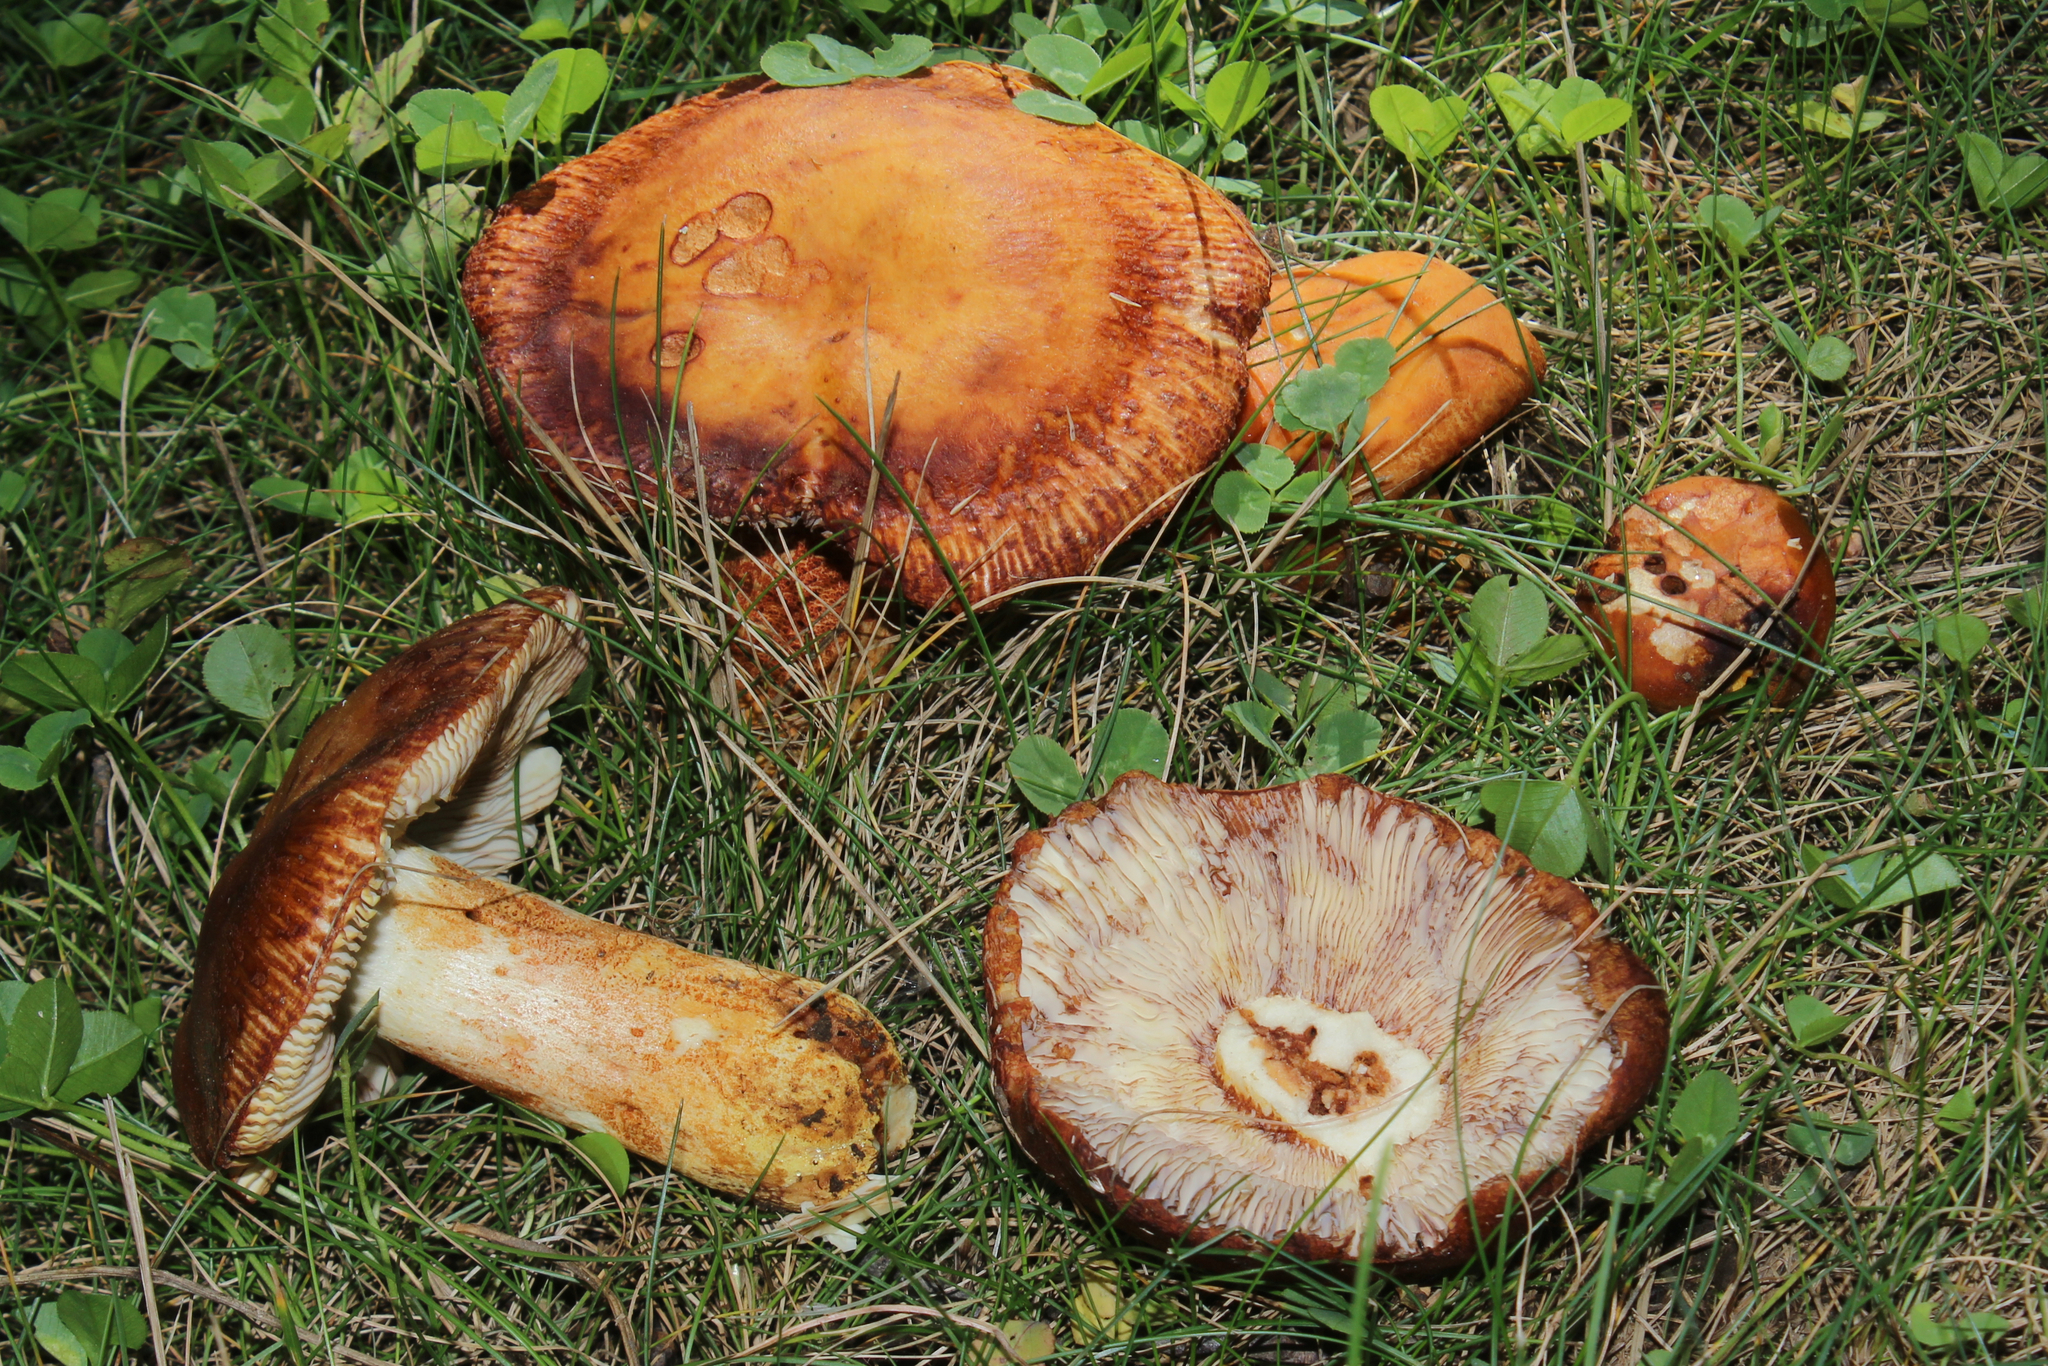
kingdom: Fungi
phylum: Basidiomycota
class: Agaricomycetes
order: Russulales
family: Russulaceae
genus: Russula
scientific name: Russula mutabilis
